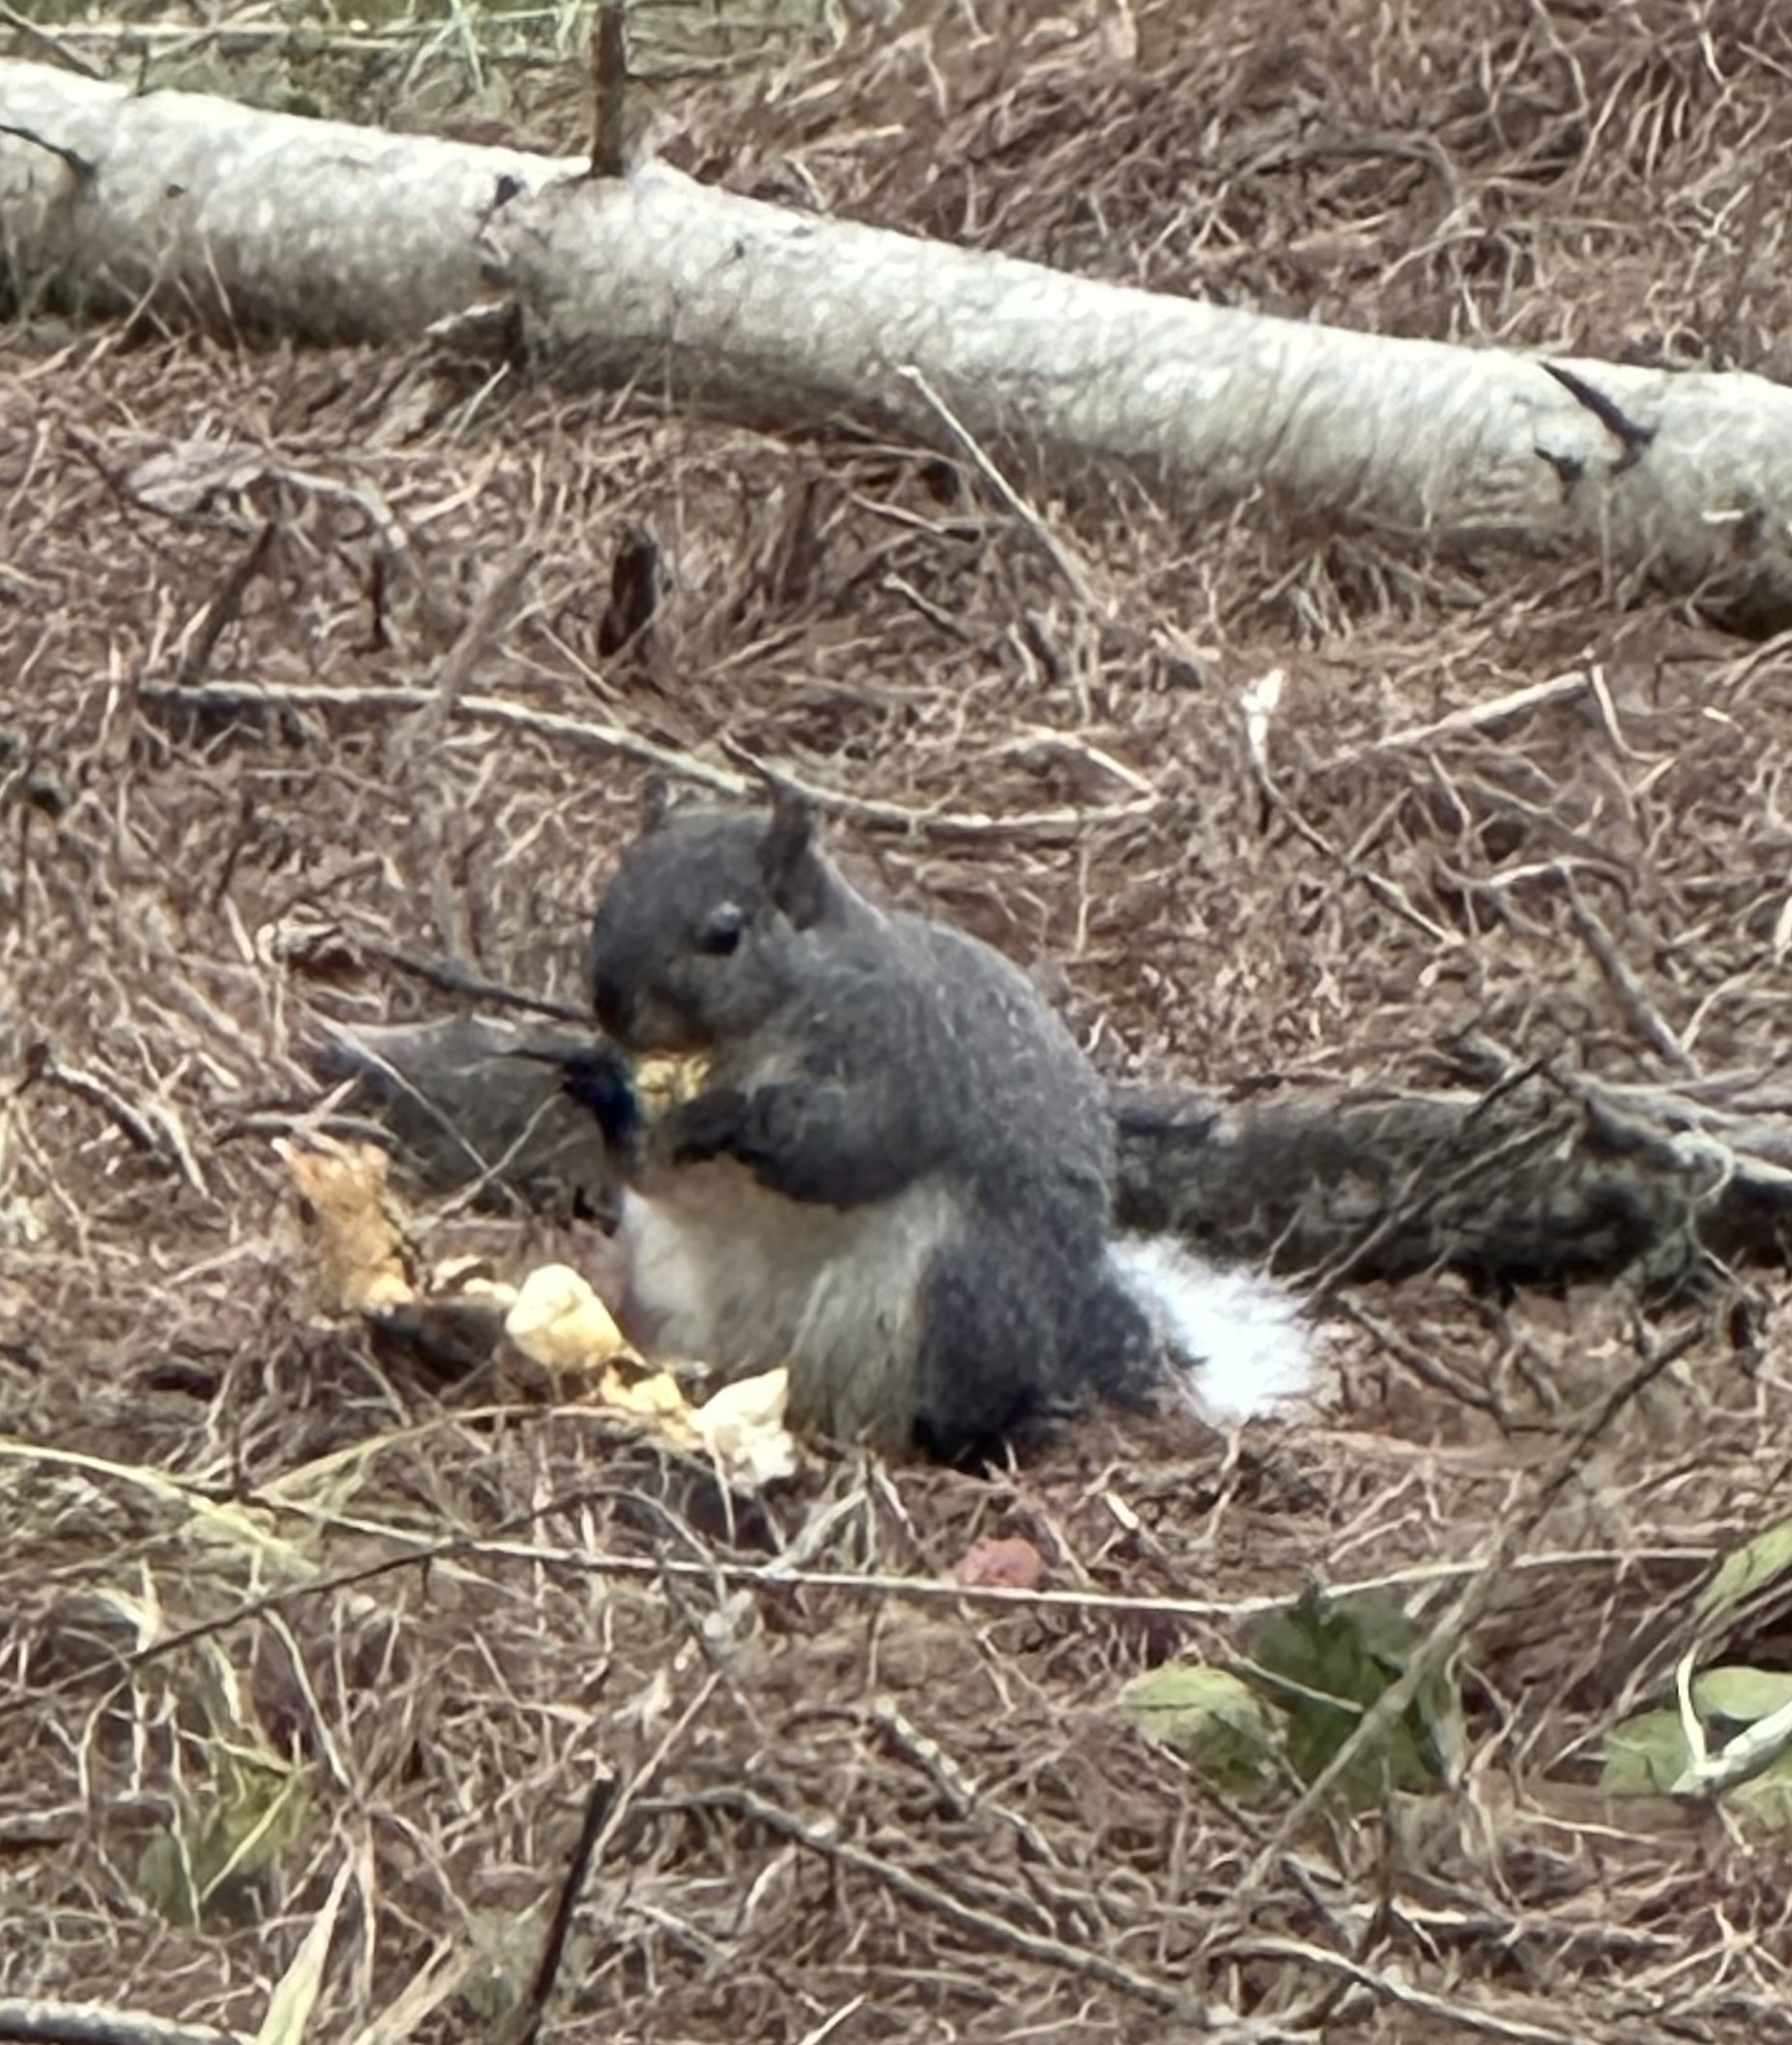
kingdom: Animalia
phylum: Chordata
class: Mammalia
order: Rodentia
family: Sciuridae
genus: Sciurus
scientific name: Sciurus griseus
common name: Western gray squirrel
